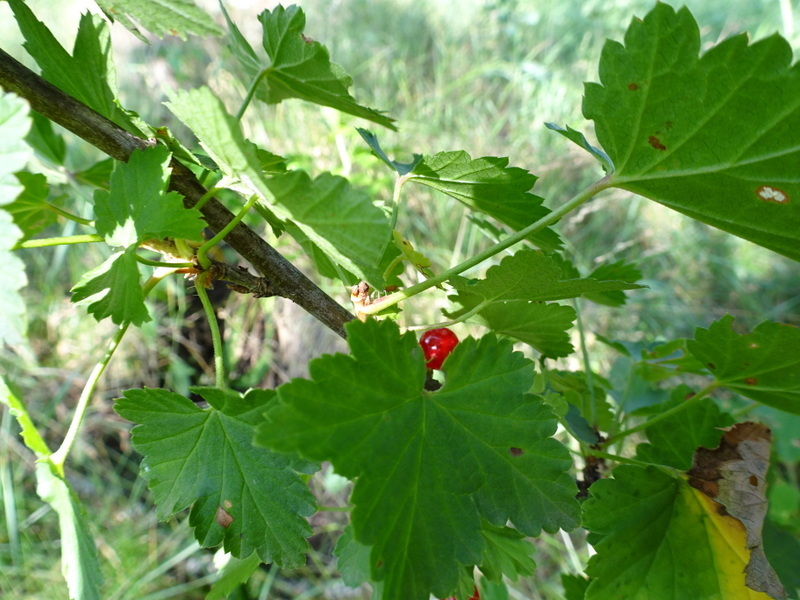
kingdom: Plantae
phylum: Tracheophyta
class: Magnoliopsida
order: Saxifragales
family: Grossulariaceae
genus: Ribes
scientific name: Ribes rubrum
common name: Red currant
